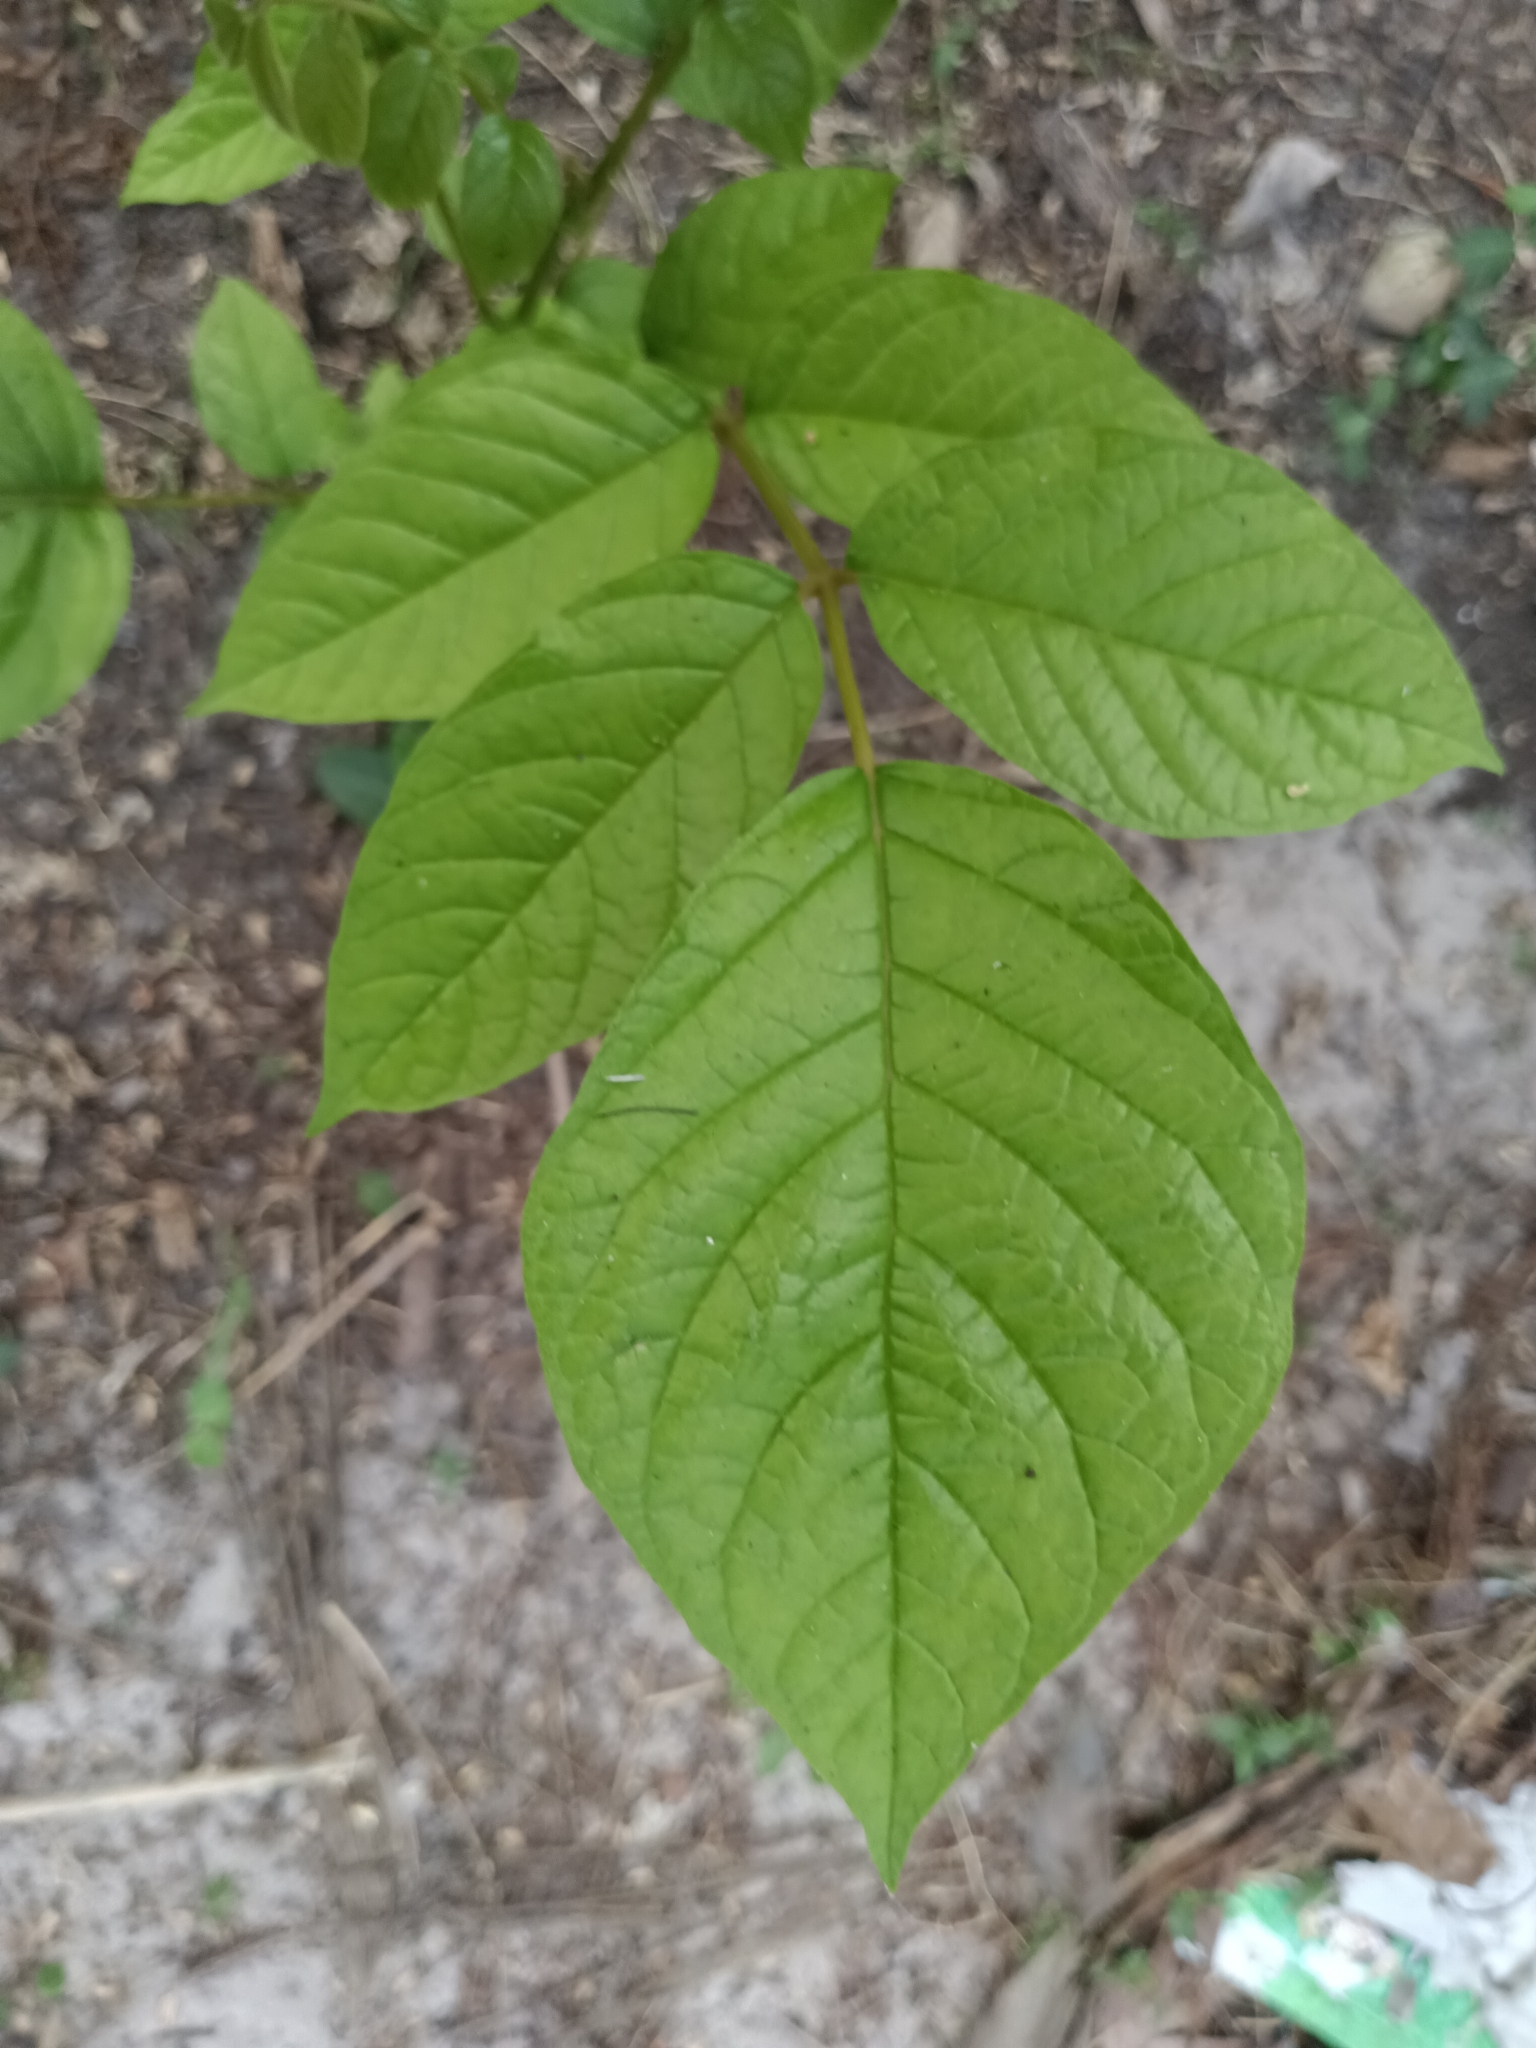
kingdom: Plantae
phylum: Tracheophyta
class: Magnoliopsida
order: Lamiales
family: Bignoniaceae
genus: Spathodea
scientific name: Spathodea campanulata
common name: African tuliptree
